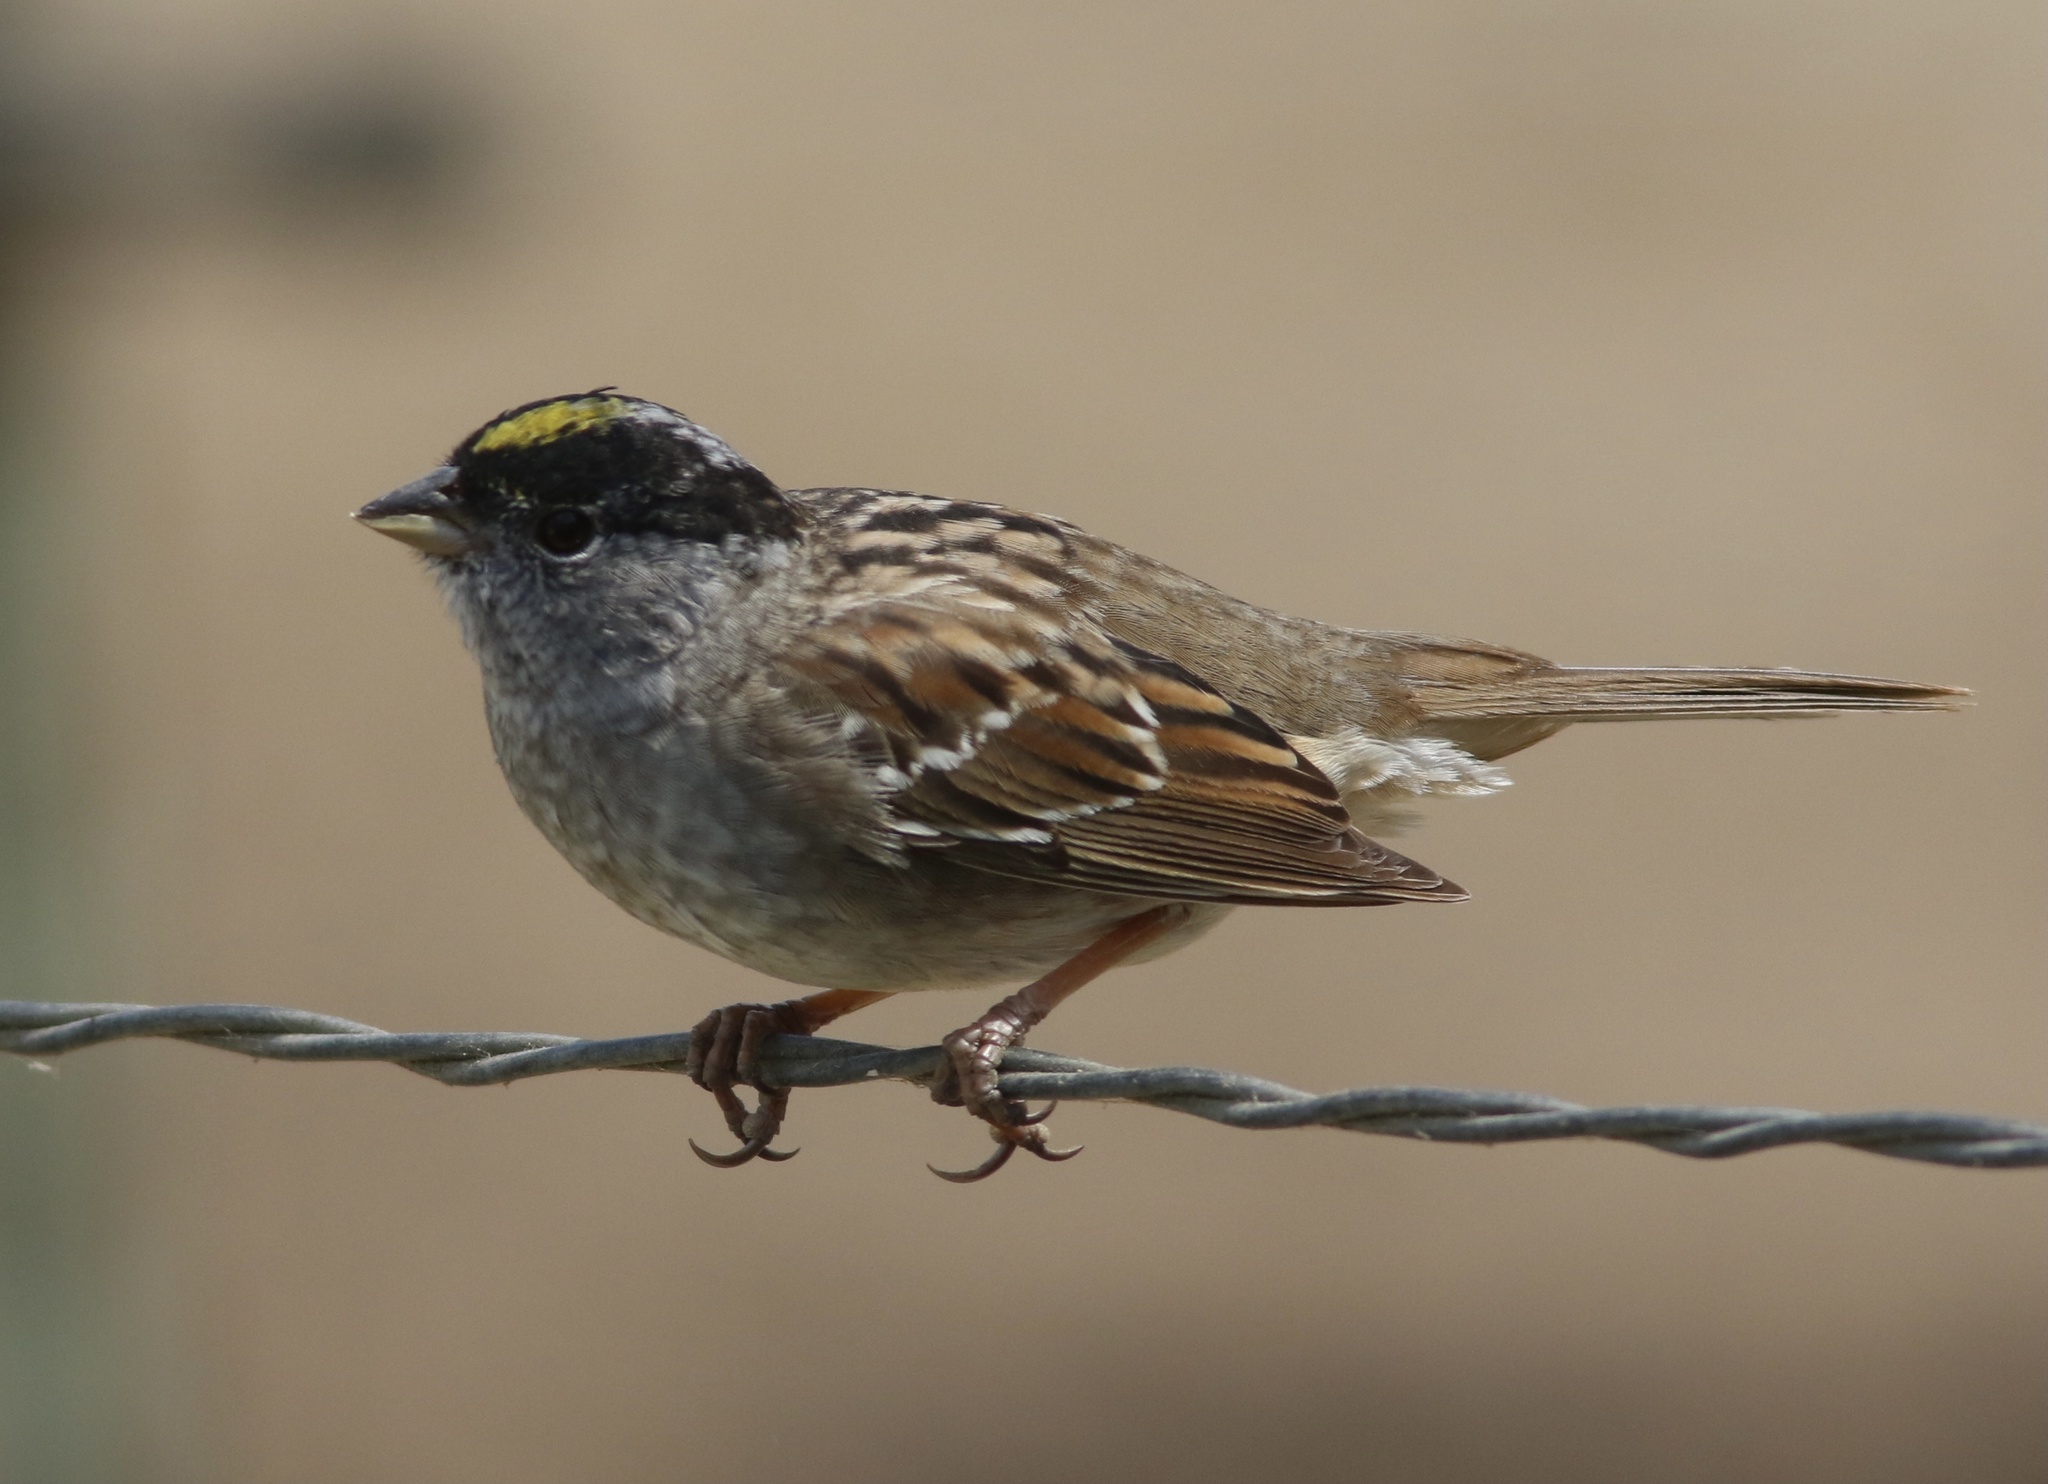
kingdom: Animalia
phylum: Chordata
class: Aves
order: Passeriformes
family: Passerellidae
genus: Zonotrichia
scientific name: Zonotrichia atricapilla
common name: Golden-crowned sparrow
